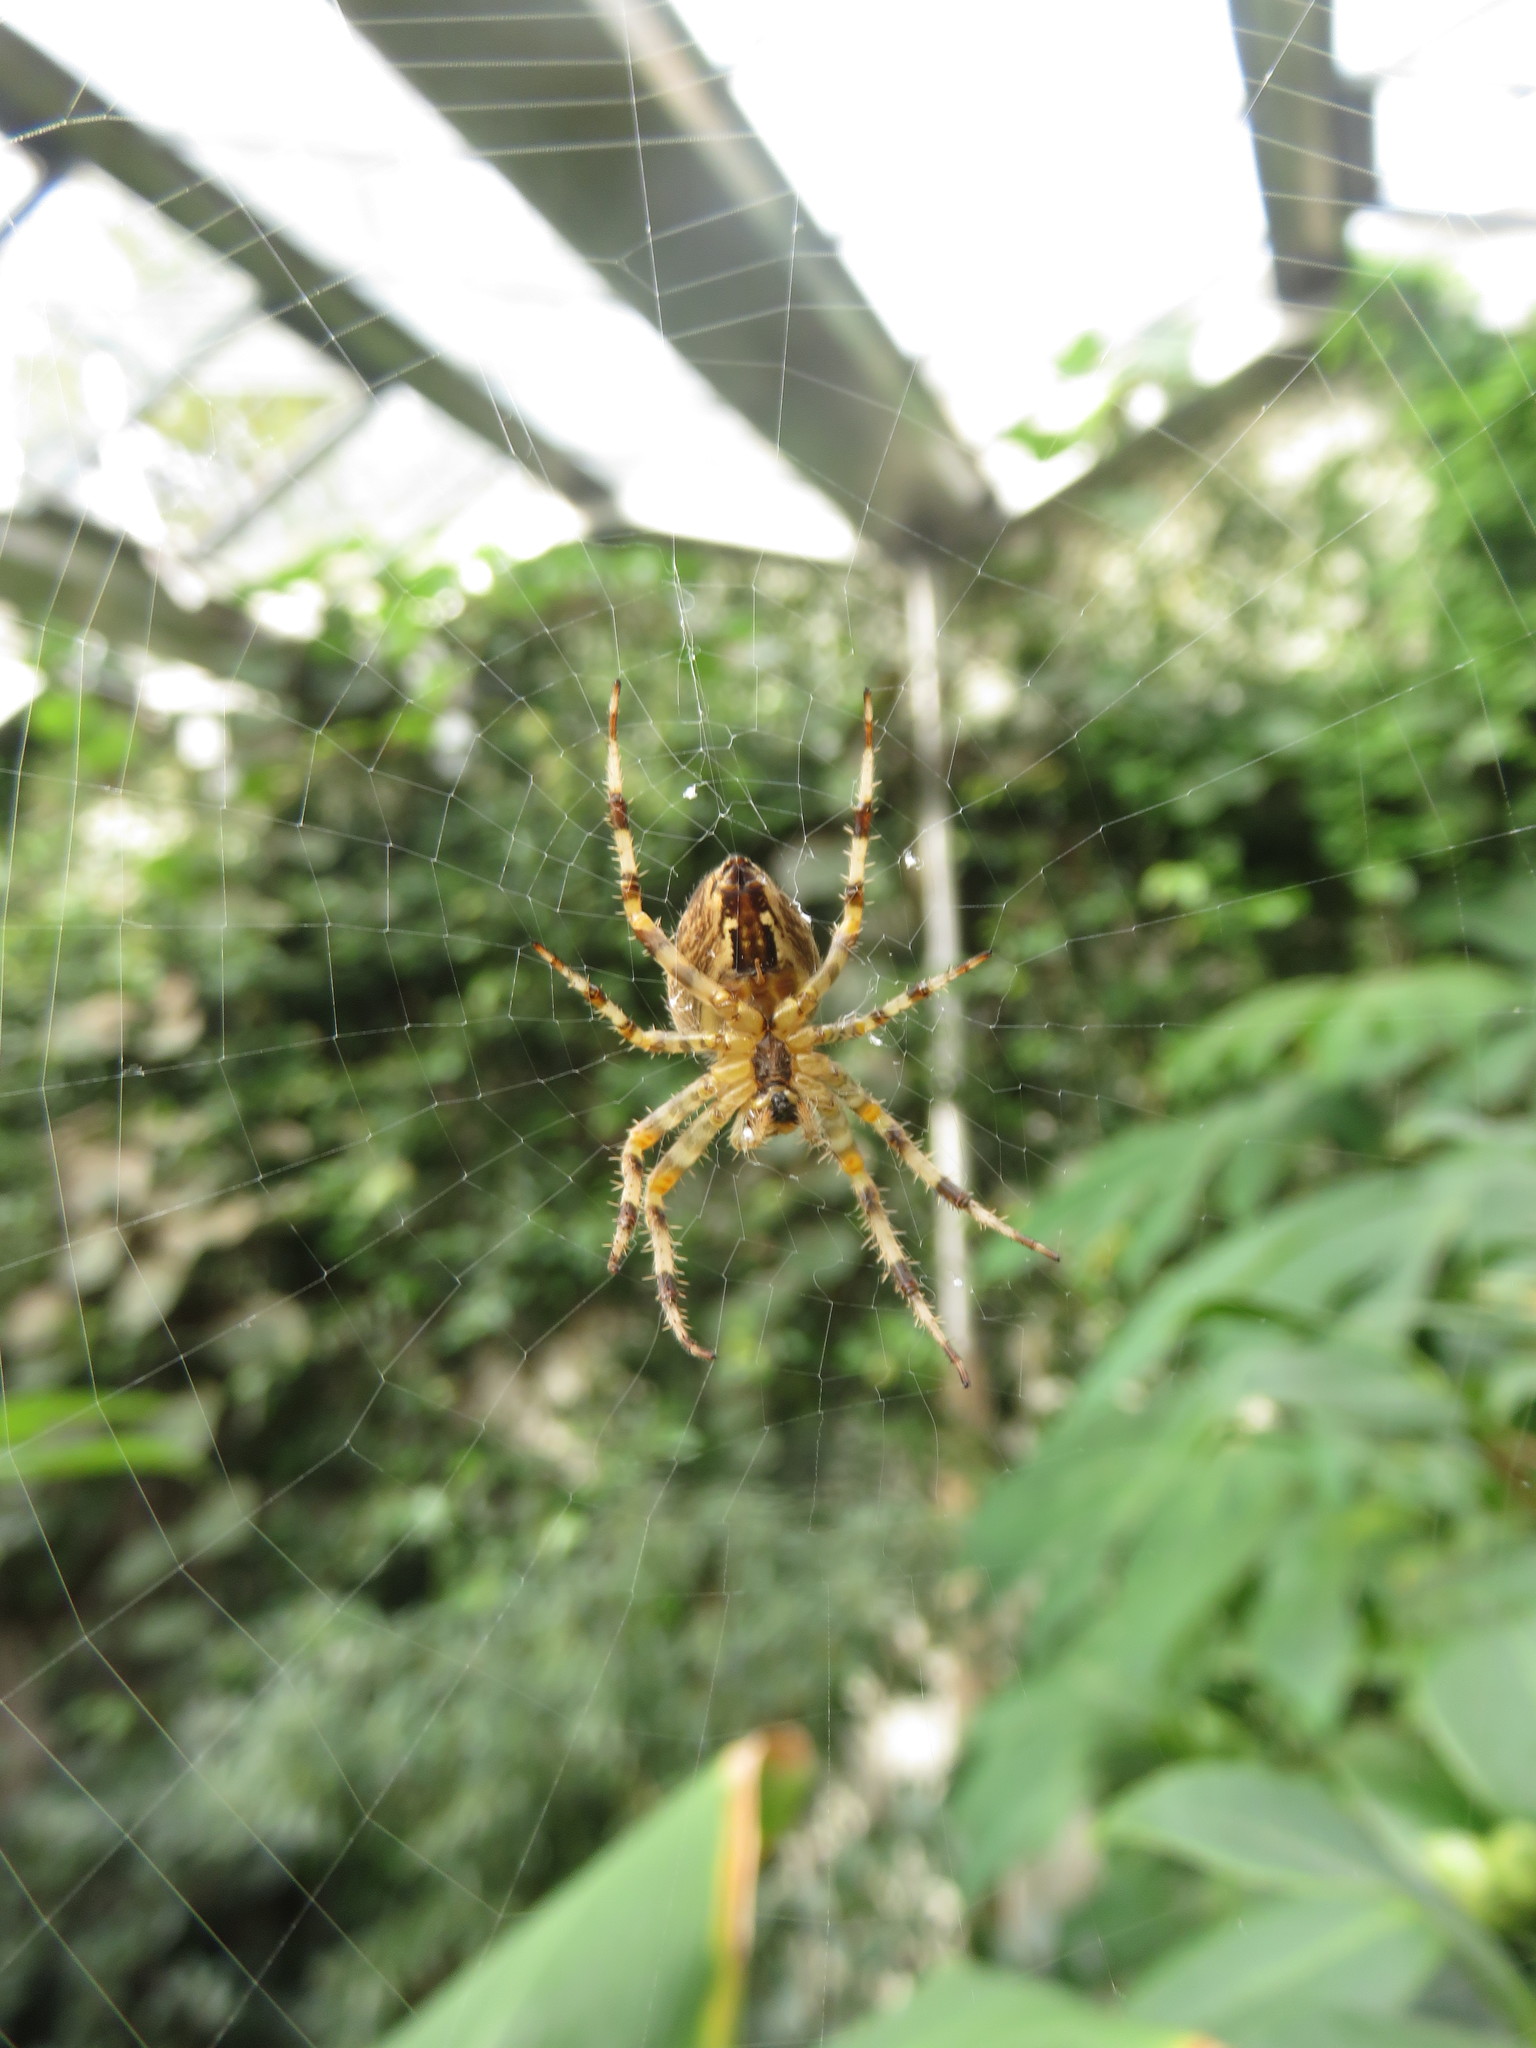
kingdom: Animalia
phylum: Arthropoda
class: Arachnida
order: Araneae
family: Araneidae
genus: Araneus
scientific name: Araneus diadematus
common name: Cross orbweaver
